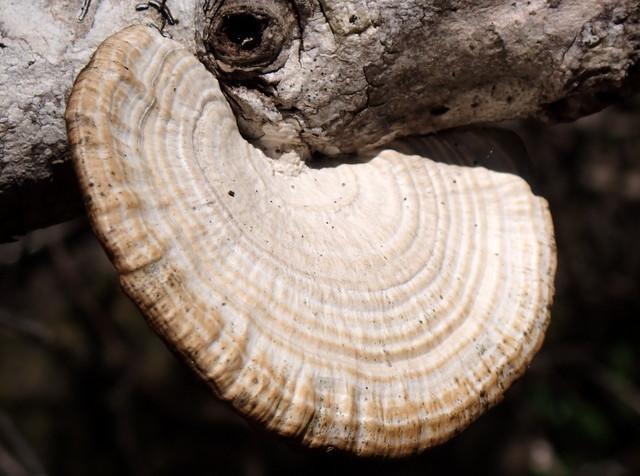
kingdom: Fungi
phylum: Basidiomycota
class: Agaricomycetes
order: Polyporales
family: Polyporaceae
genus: Daedaleopsis
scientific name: Daedaleopsis confragosa
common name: Blushing bracket
